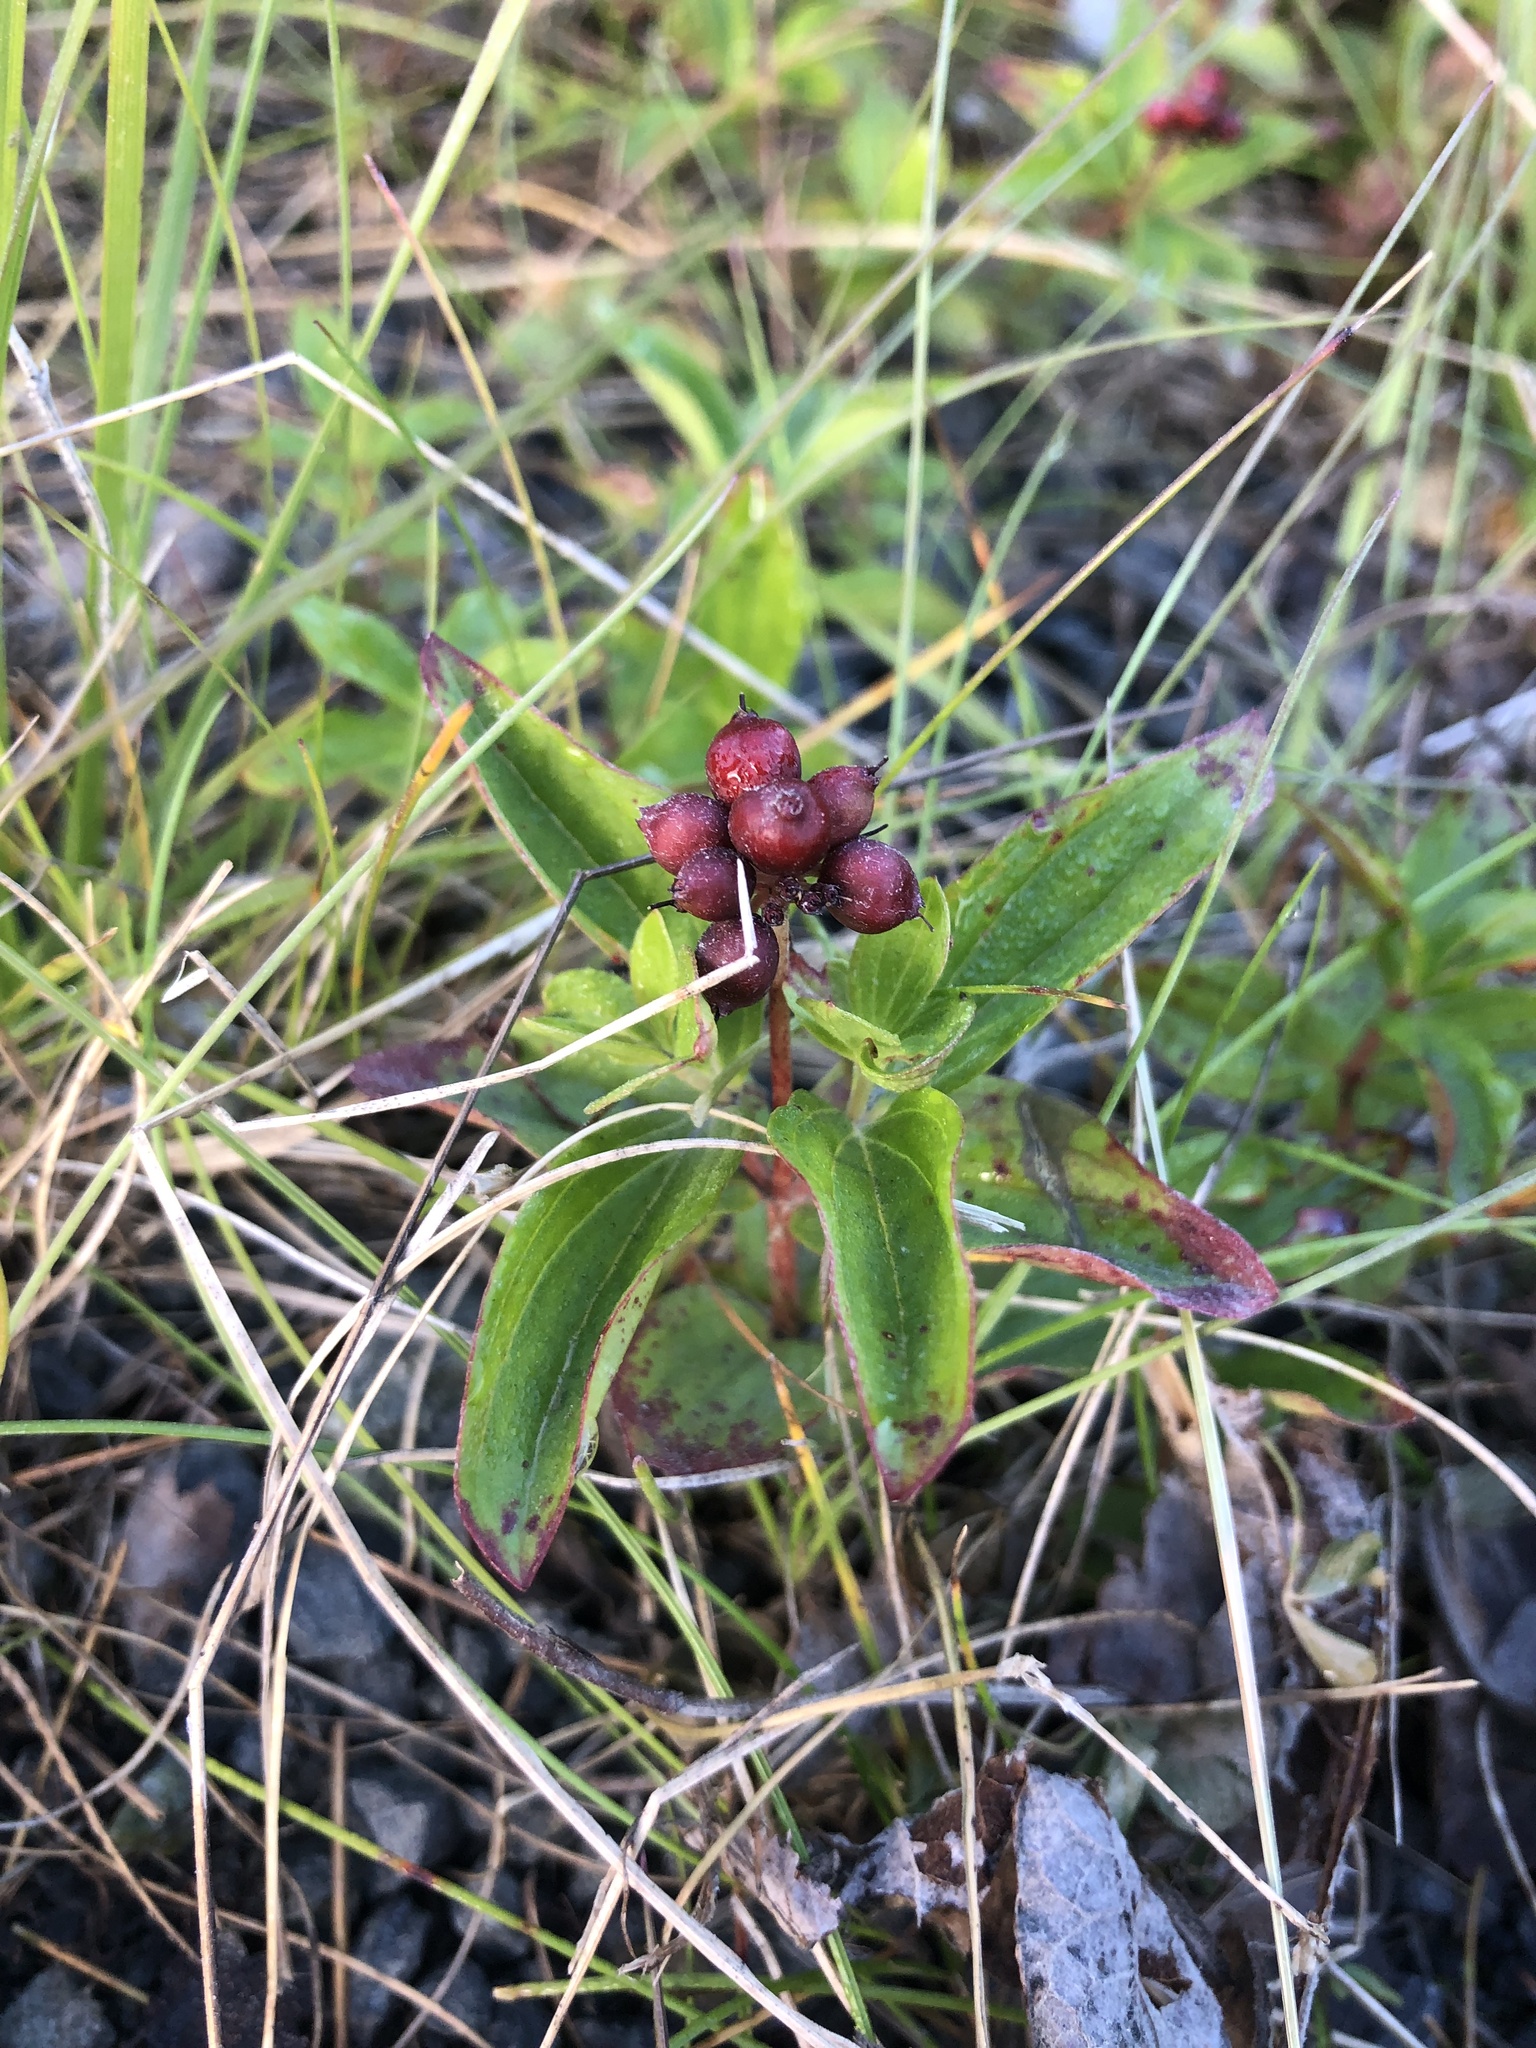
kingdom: Plantae
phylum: Tracheophyta
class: Magnoliopsida
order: Cornales
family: Cornaceae
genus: Cornus
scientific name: Cornus suecica
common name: Dwarf cornel
